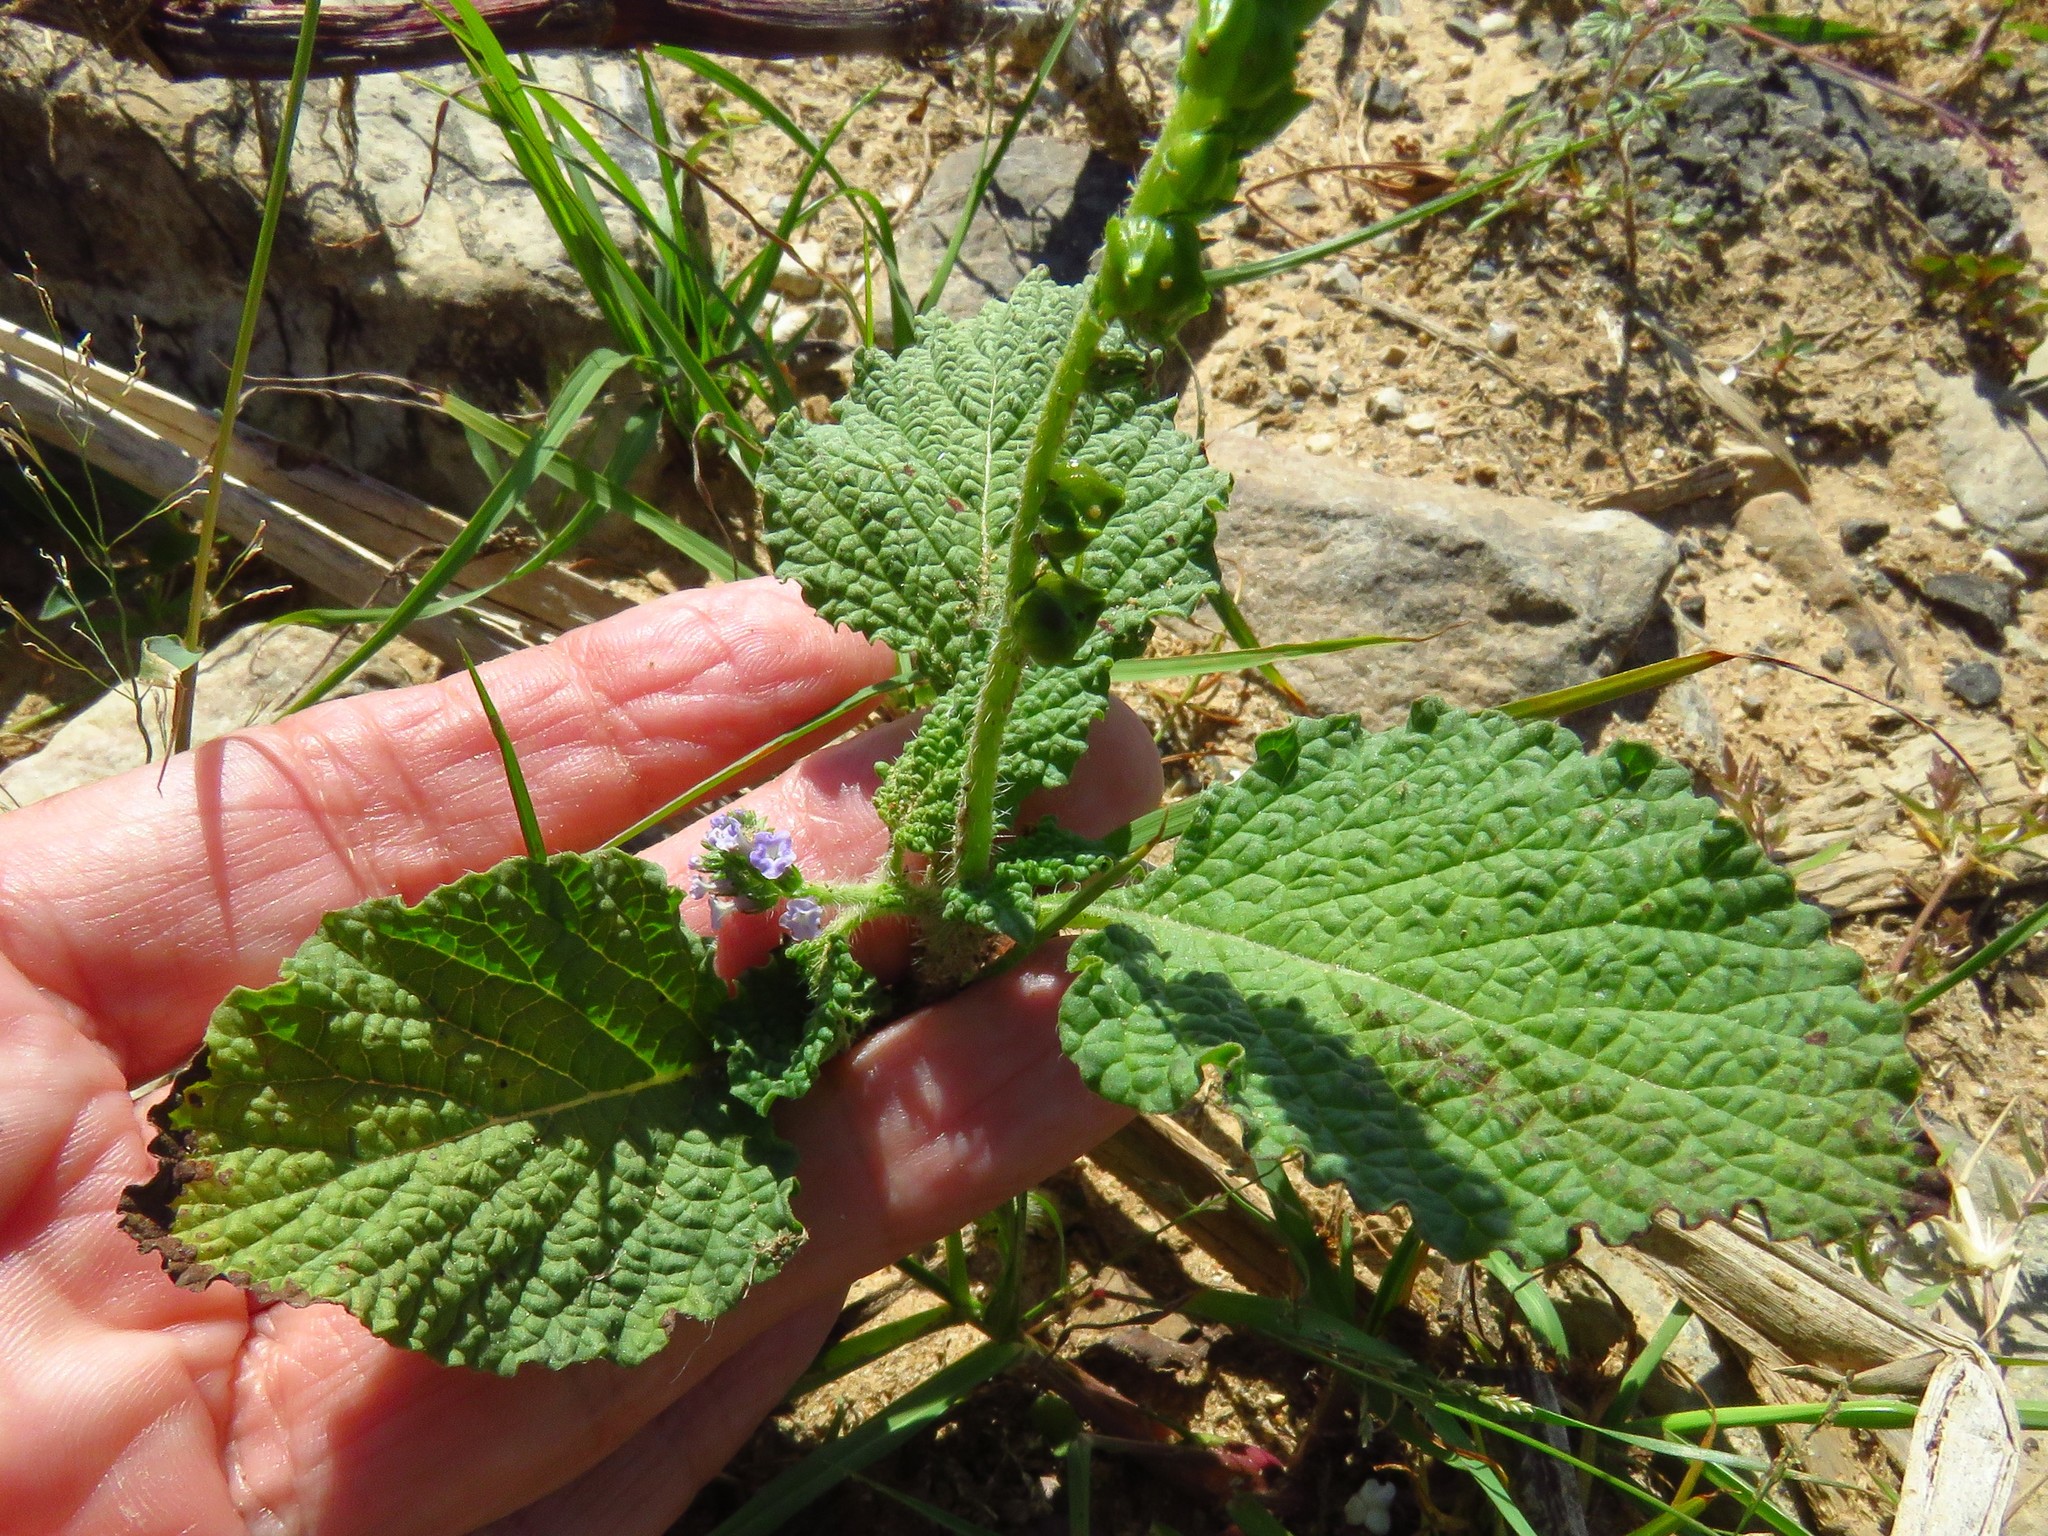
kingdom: Plantae
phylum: Tracheophyta
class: Magnoliopsida
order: Boraginales
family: Heliotropiaceae
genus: Heliotropium
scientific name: Heliotropium indicum
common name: Indian heliotrope
